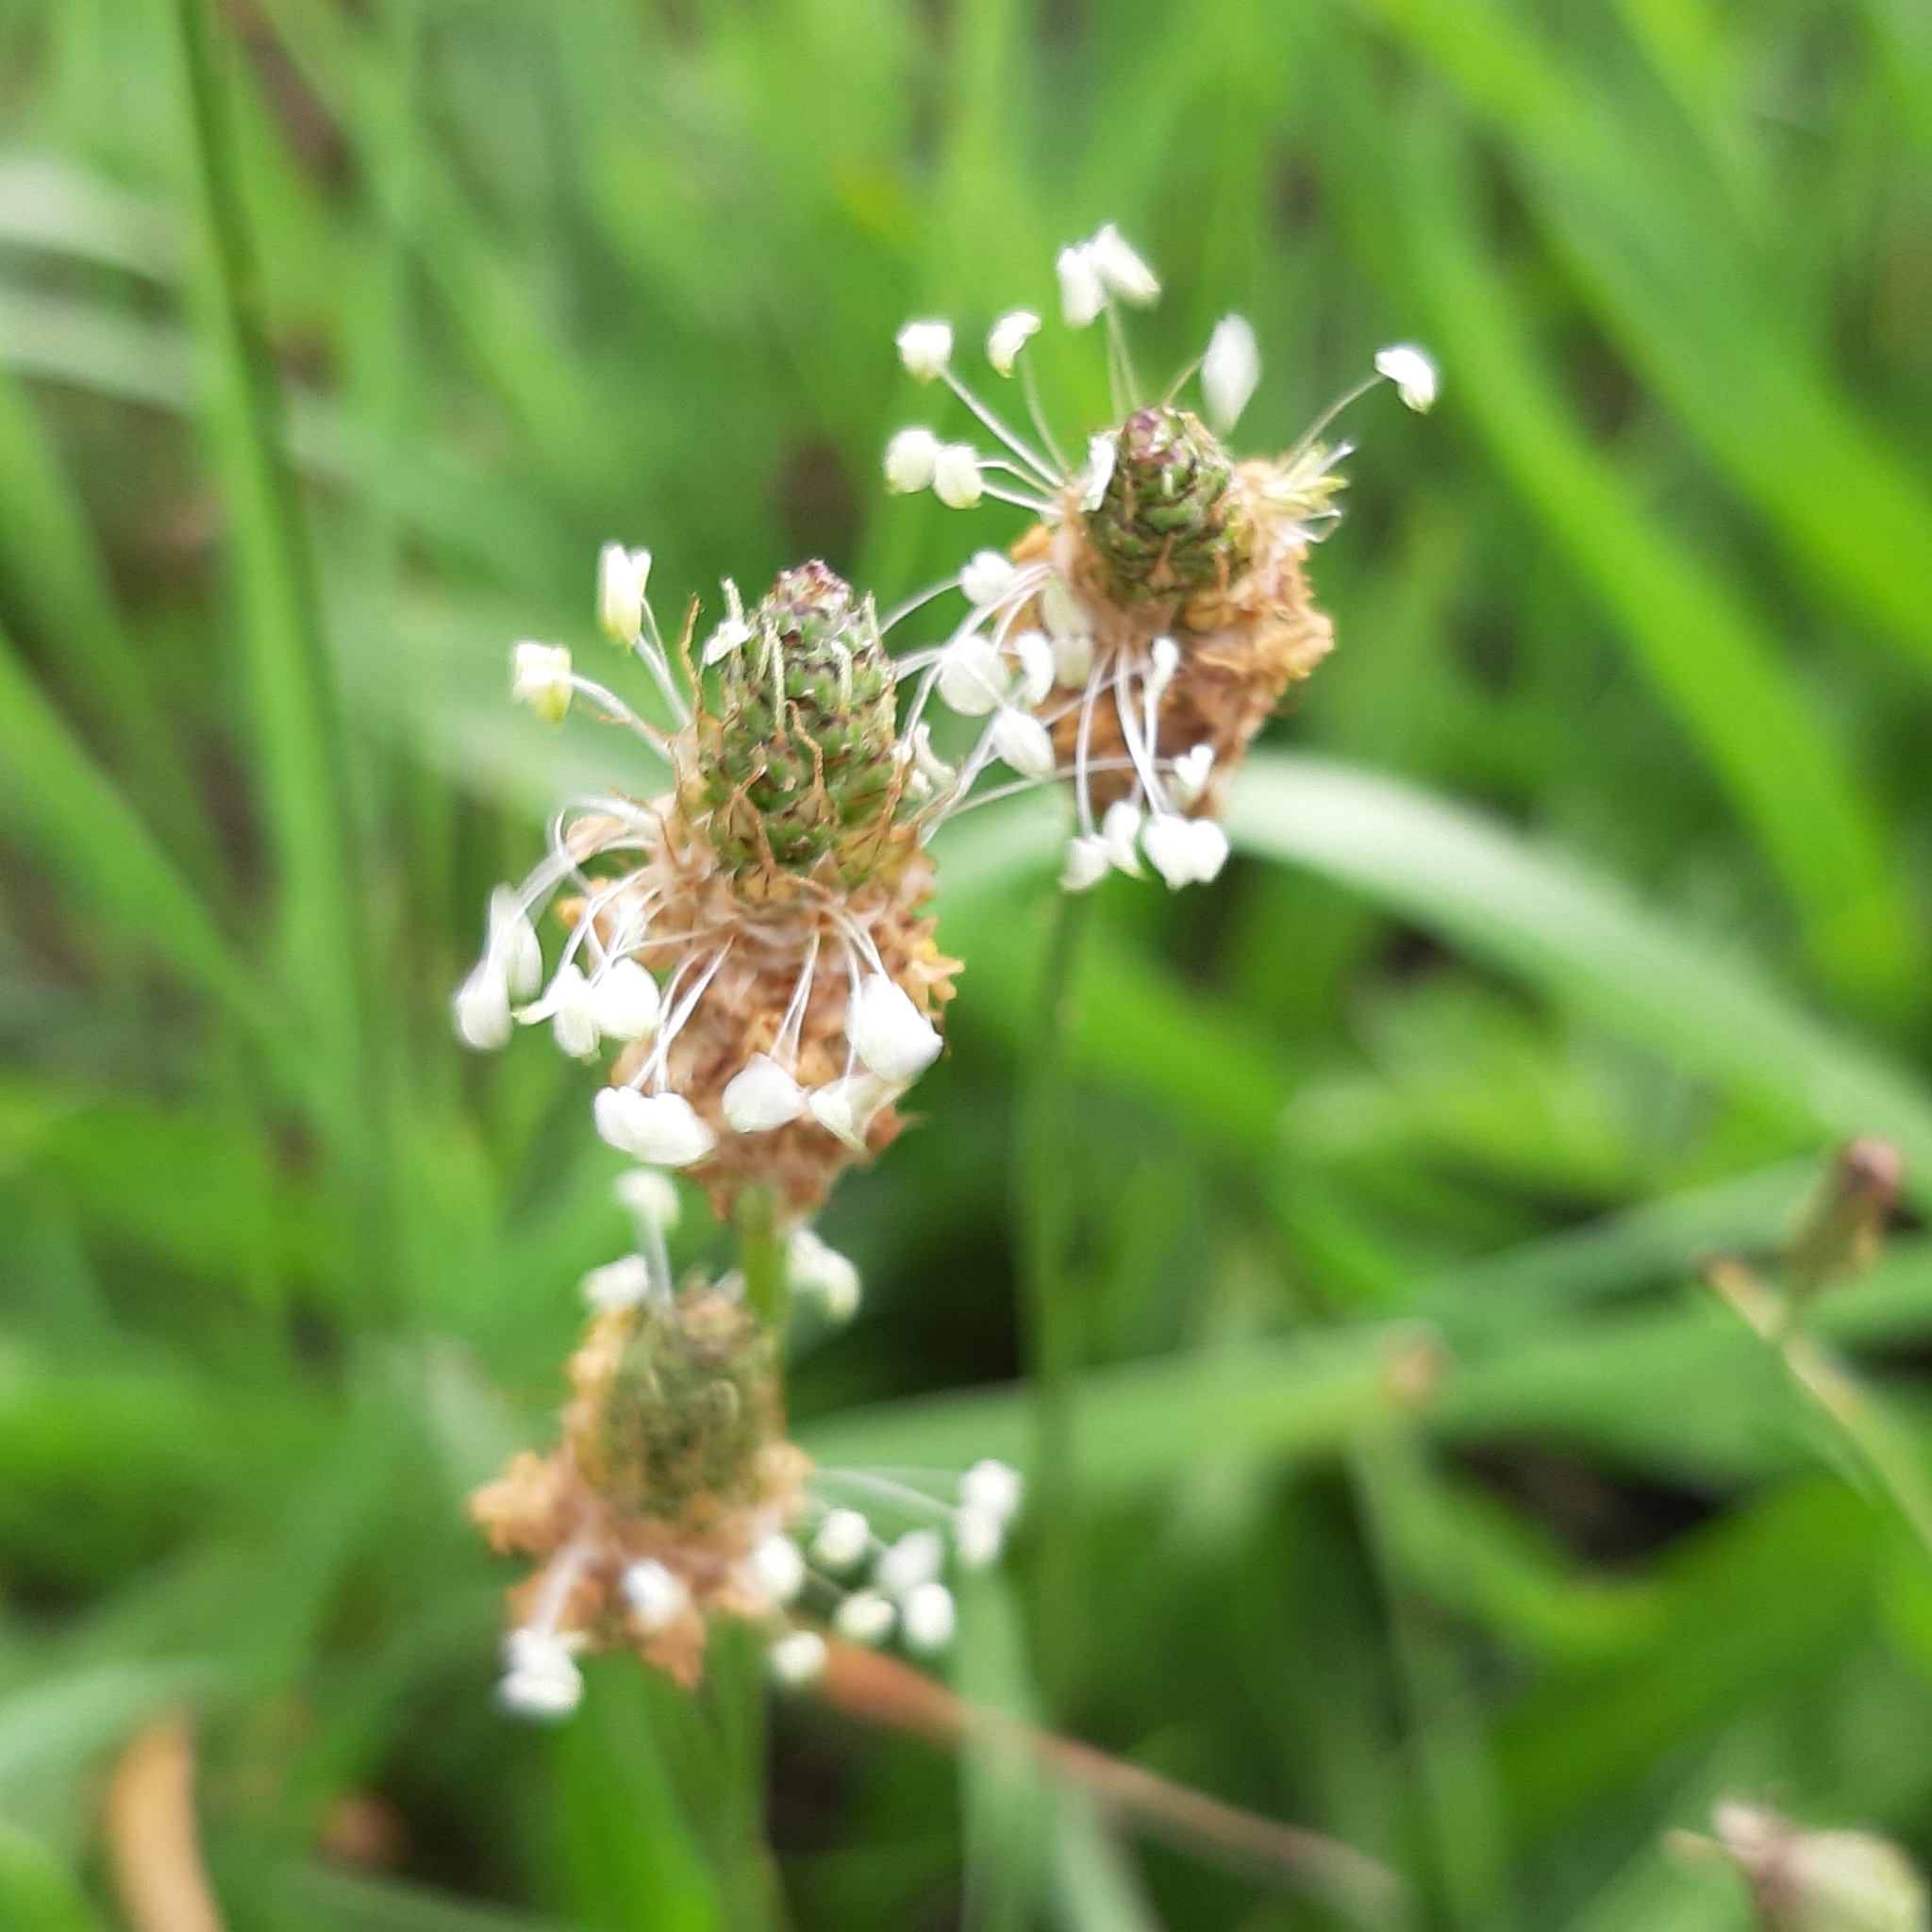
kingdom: Plantae
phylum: Tracheophyta
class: Magnoliopsida
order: Lamiales
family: Plantaginaceae
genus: Plantago
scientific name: Plantago lanceolata
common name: Ribwort plantain
